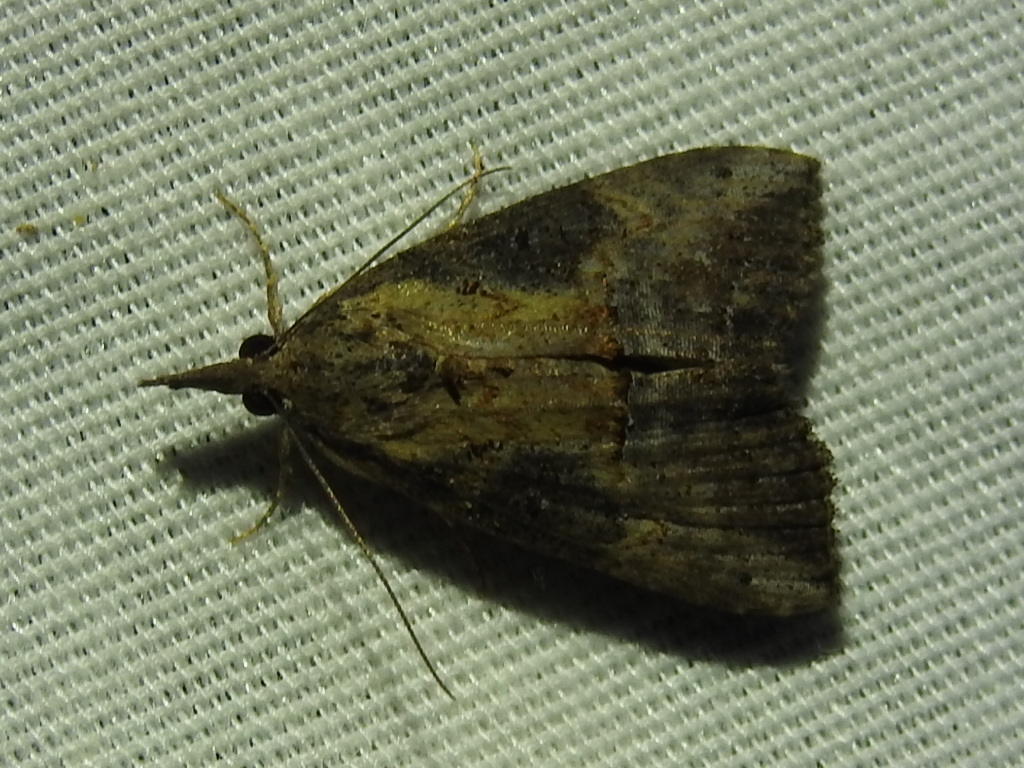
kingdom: Animalia
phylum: Arthropoda
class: Insecta
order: Lepidoptera
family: Erebidae
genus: Hypena
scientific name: Hypena scabra
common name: Green cloverworm
